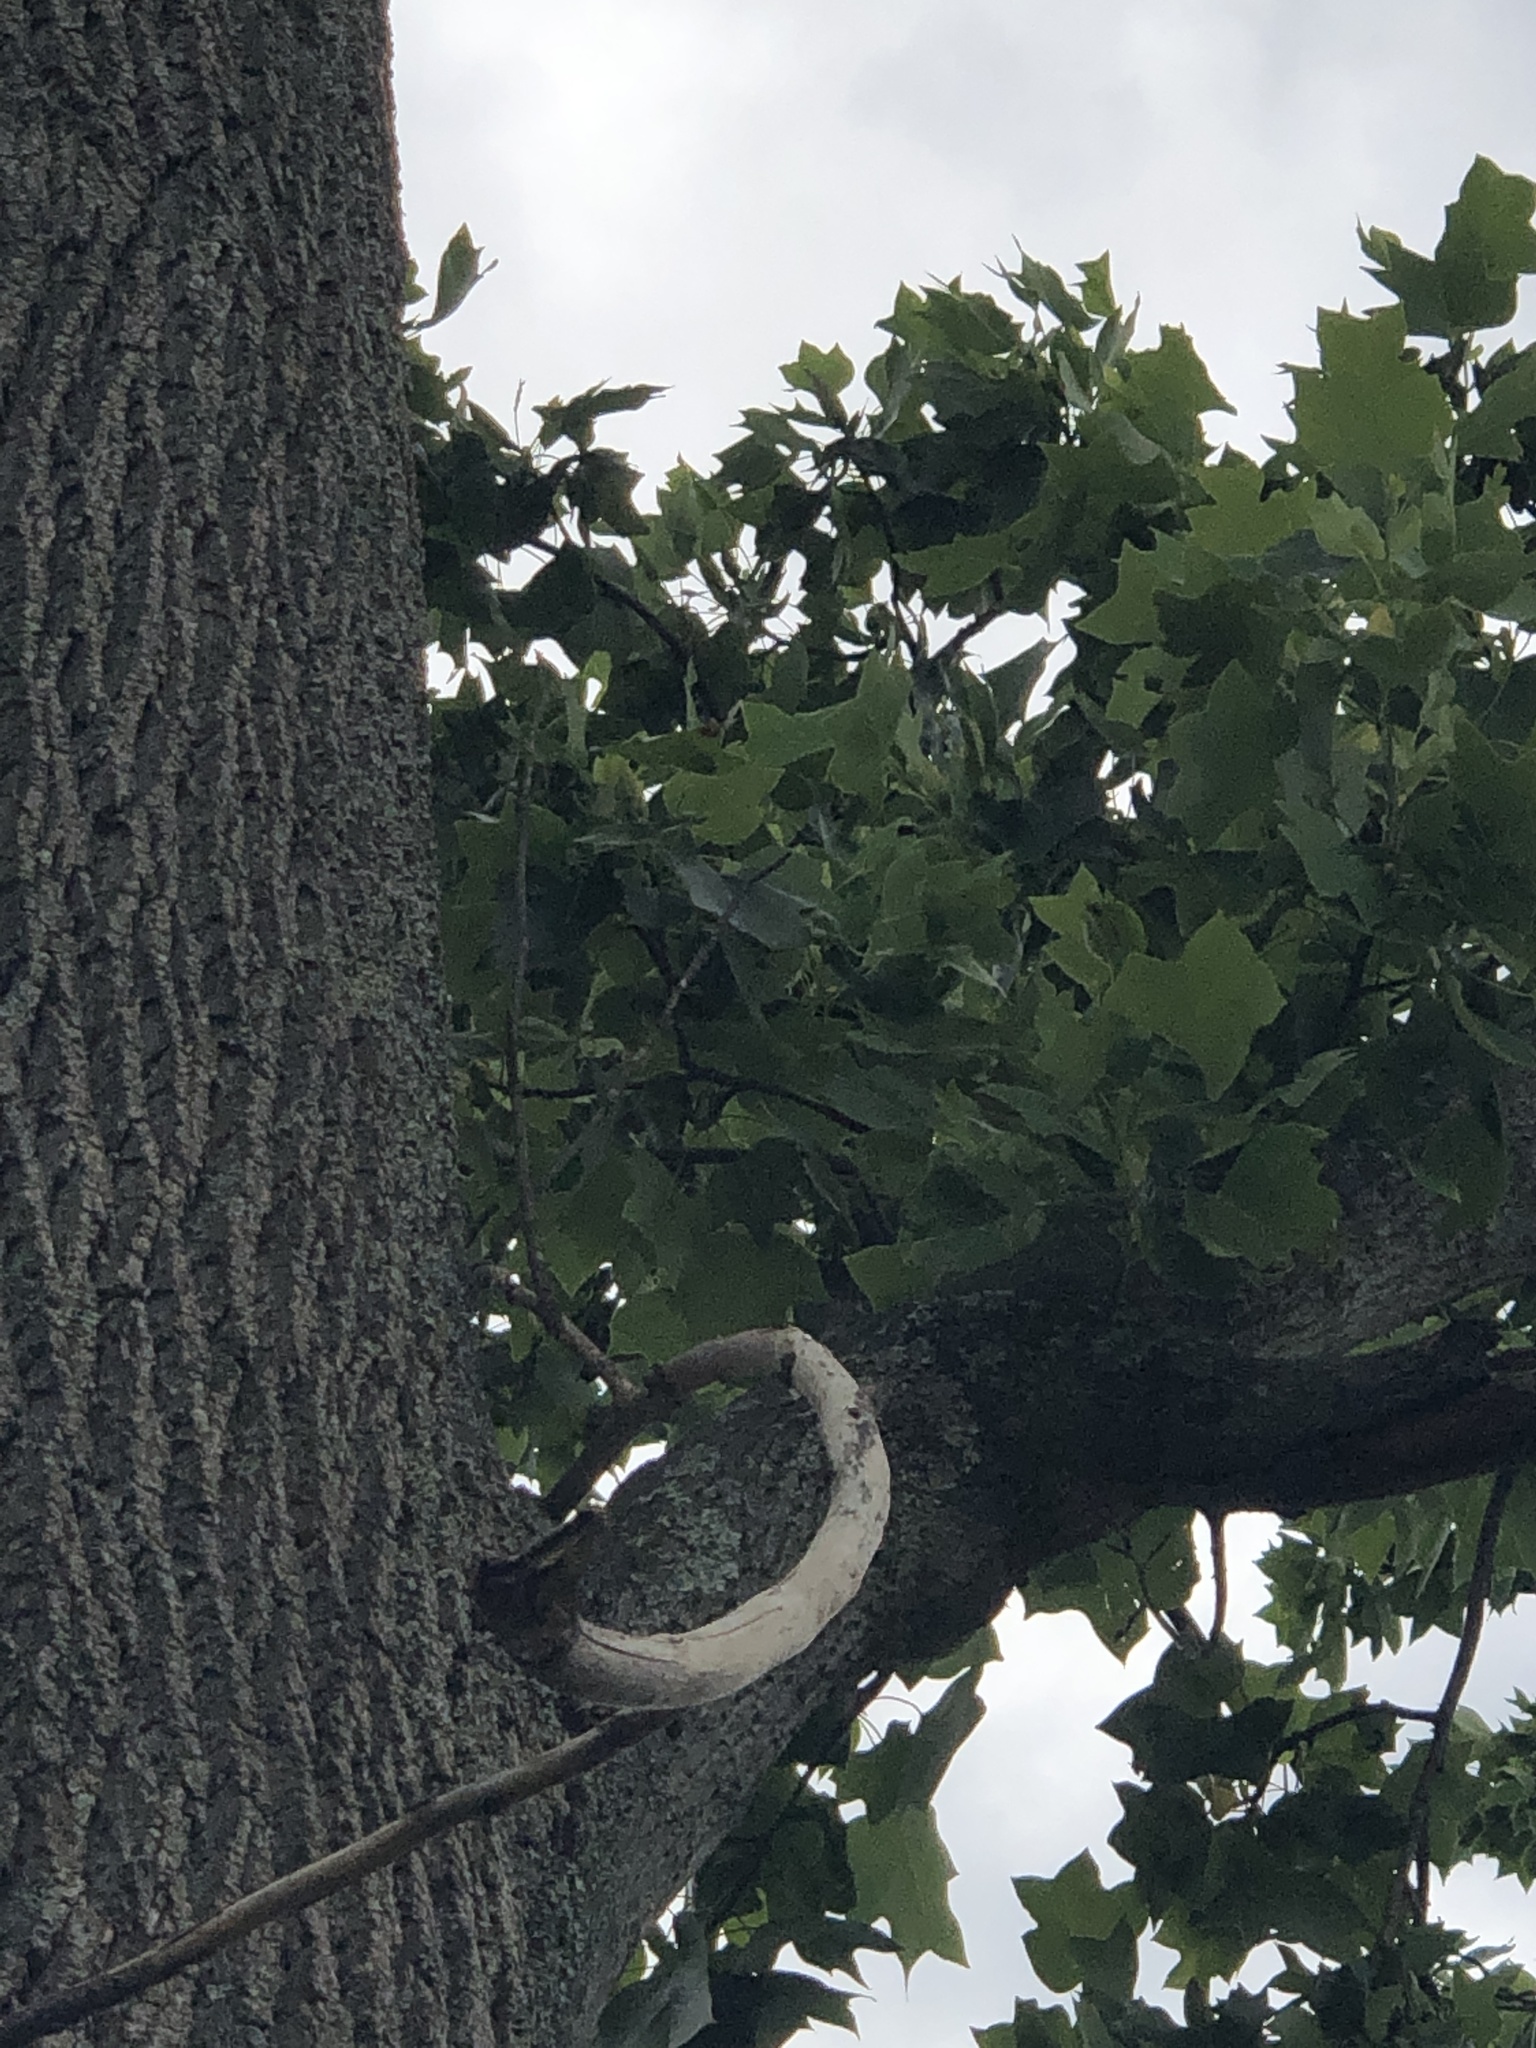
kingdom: Plantae
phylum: Tracheophyta
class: Magnoliopsida
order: Magnoliales
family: Magnoliaceae
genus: Liriodendron
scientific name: Liriodendron tulipifera
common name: Tulip tree
